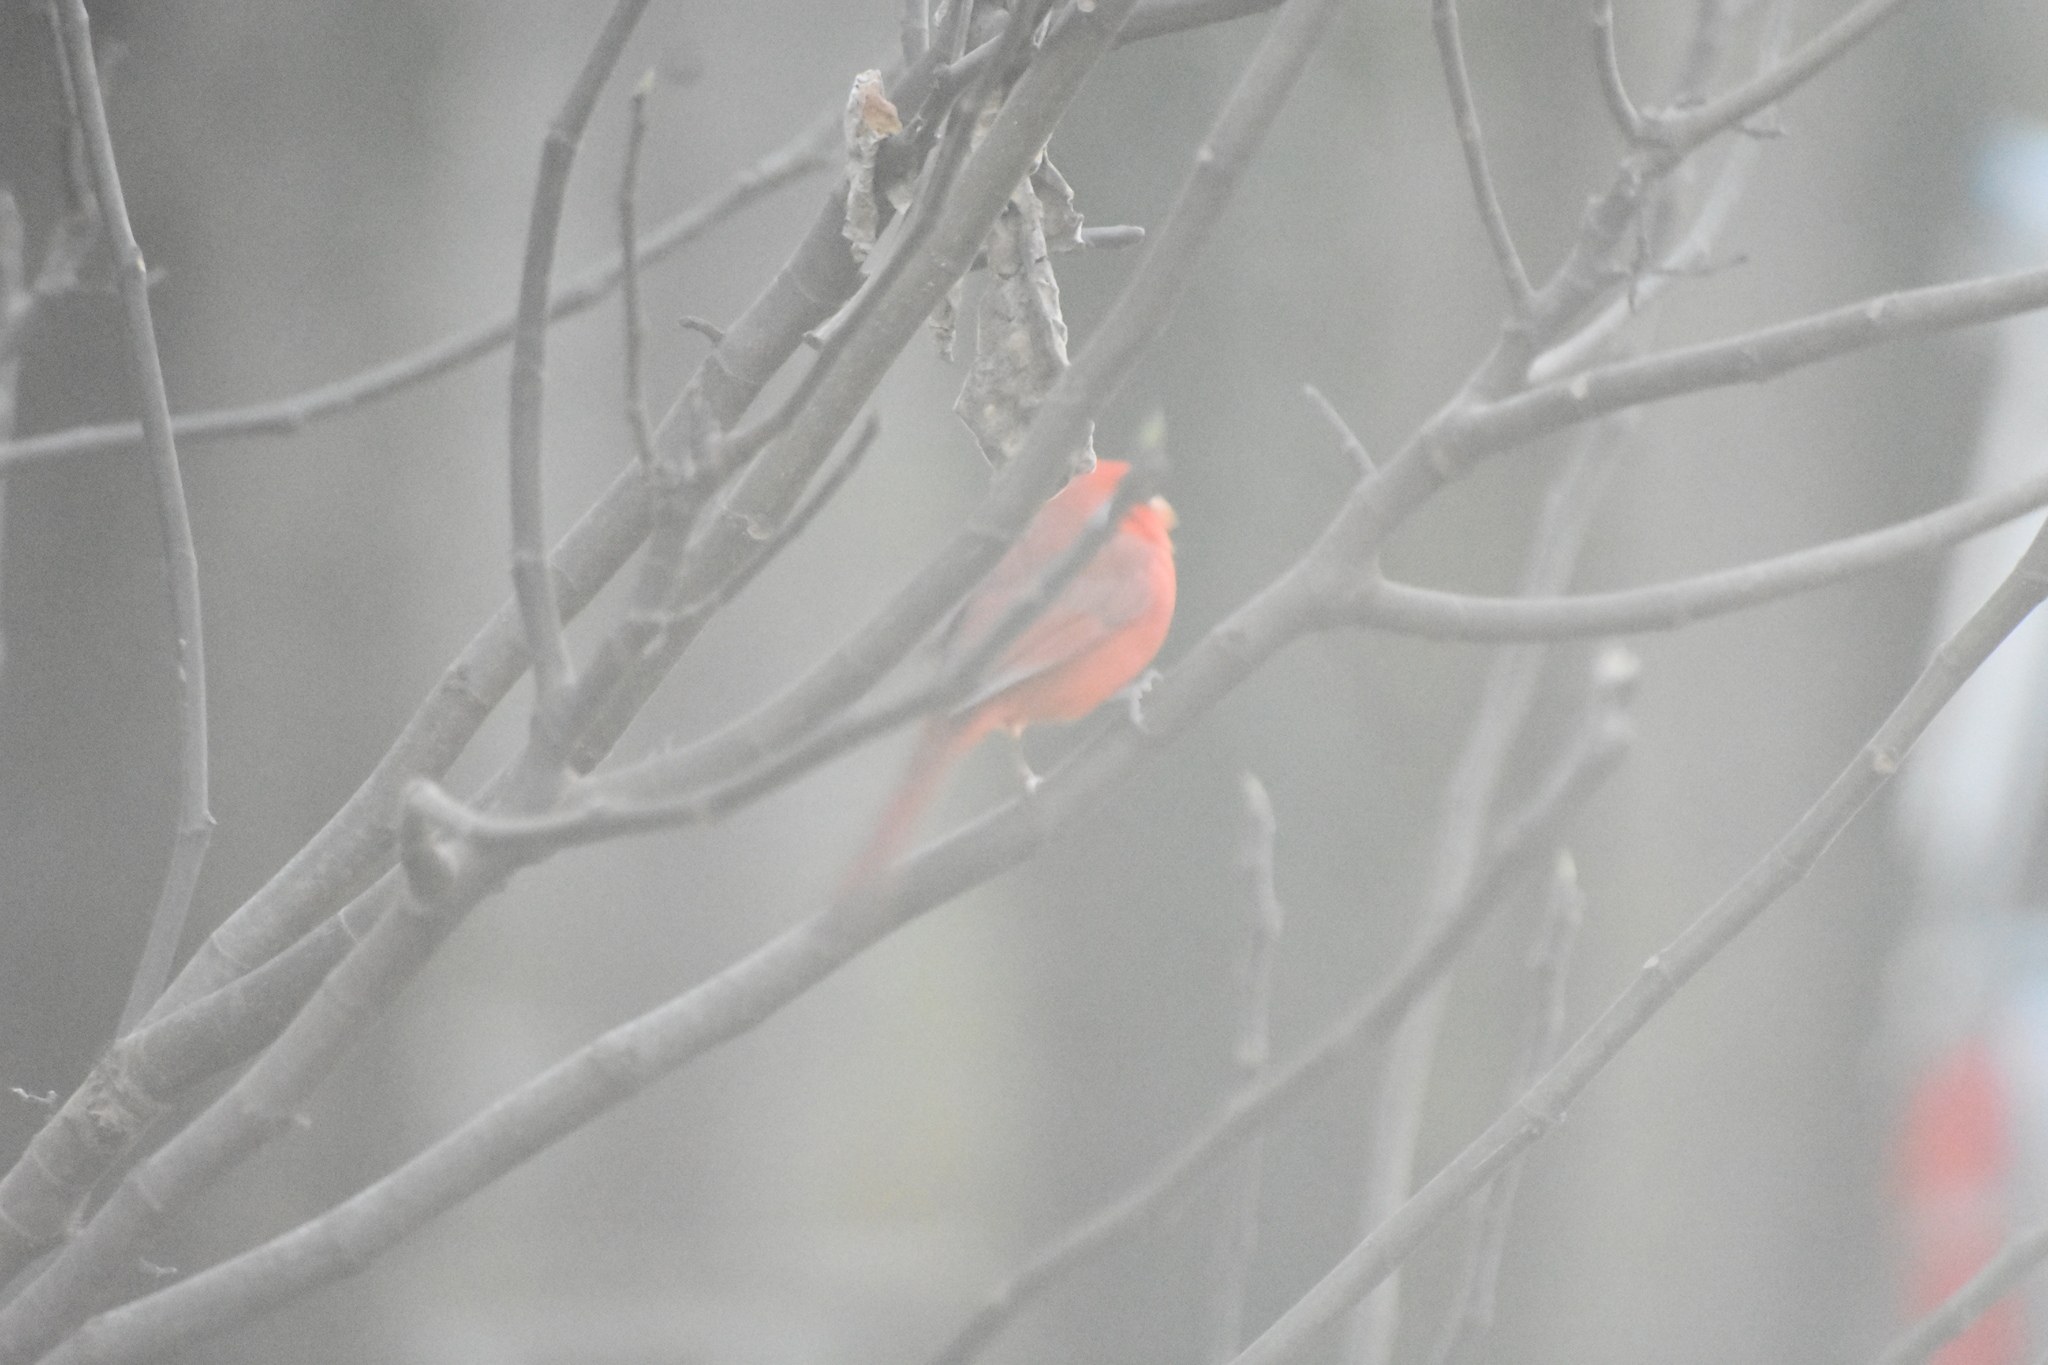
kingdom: Animalia
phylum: Chordata
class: Aves
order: Passeriformes
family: Cardinalidae
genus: Cardinalis
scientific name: Cardinalis cardinalis
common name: Northern cardinal
